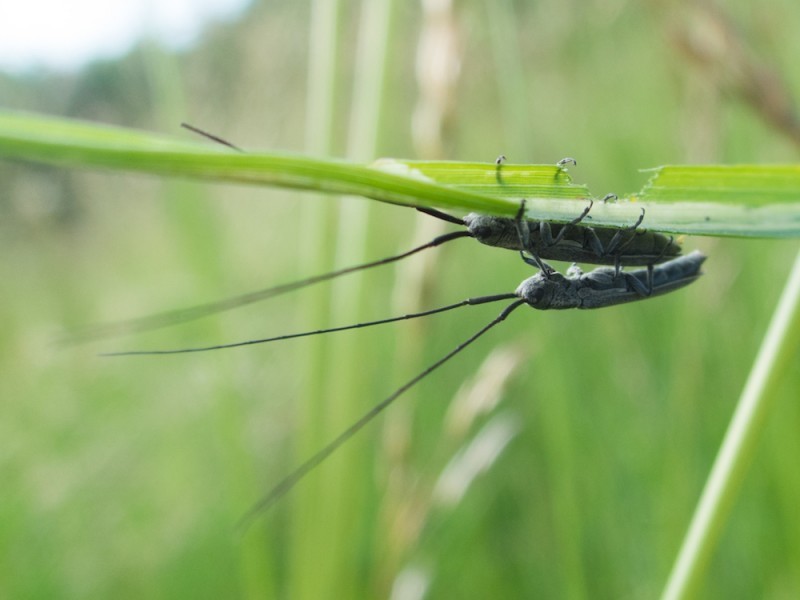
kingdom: Animalia
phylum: Arthropoda
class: Insecta
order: Coleoptera
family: Cerambycidae
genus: Calamobius
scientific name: Calamobius filum
